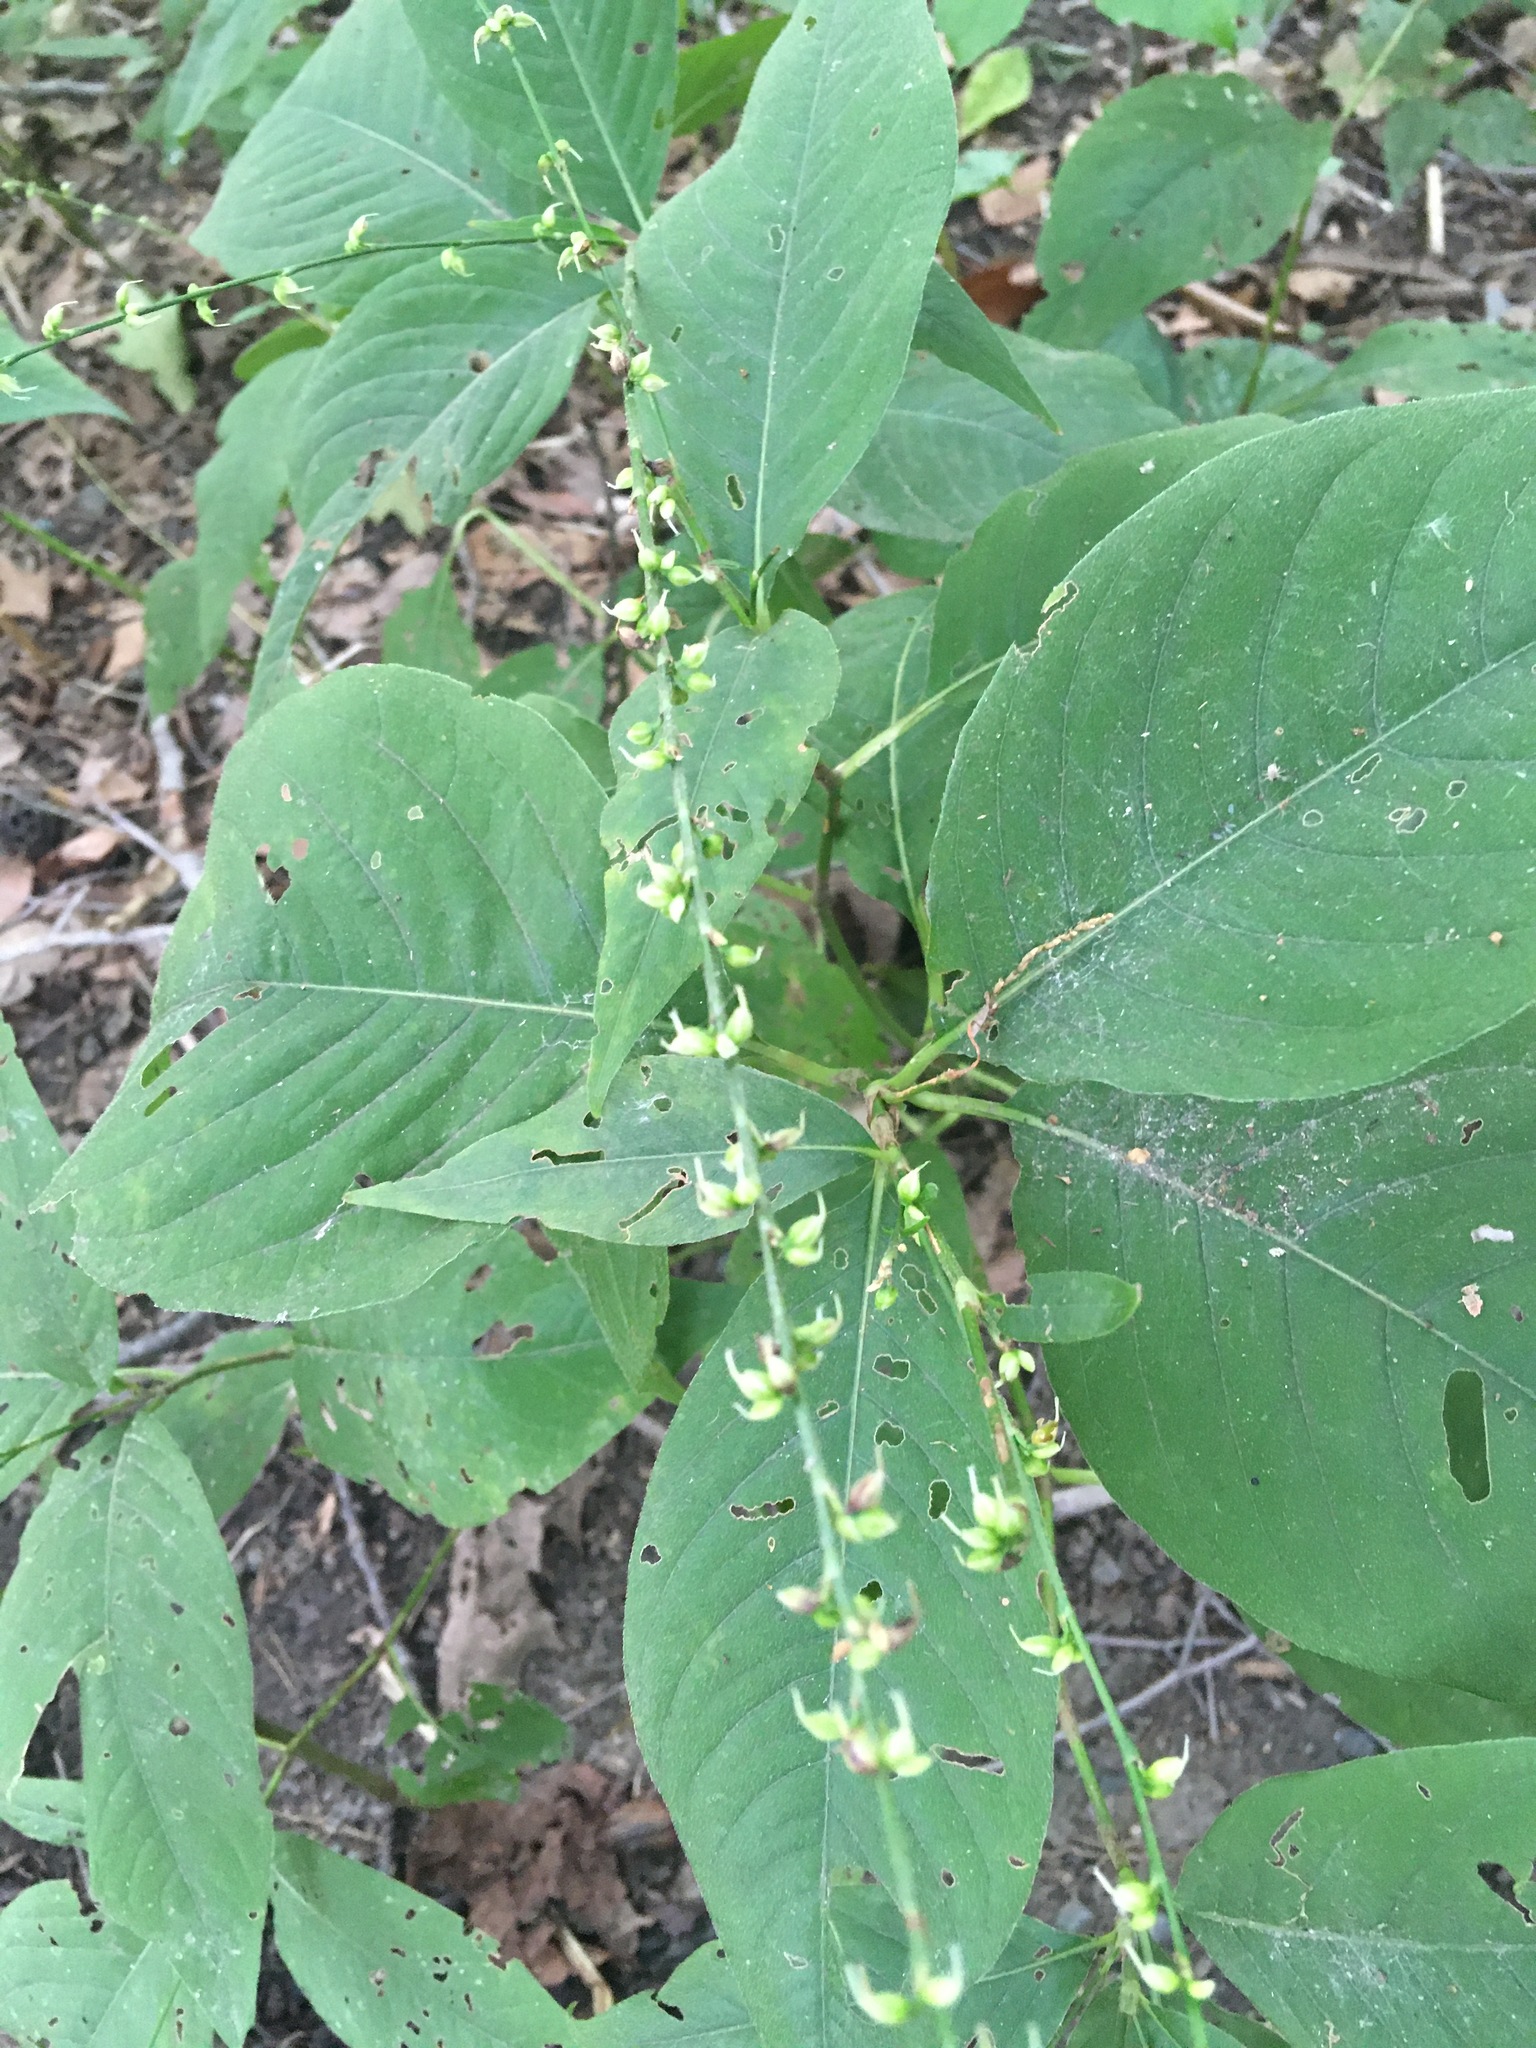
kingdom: Plantae
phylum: Tracheophyta
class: Magnoliopsida
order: Caryophyllales
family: Polygonaceae
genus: Persicaria
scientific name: Persicaria virginiana
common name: Jumpseed
